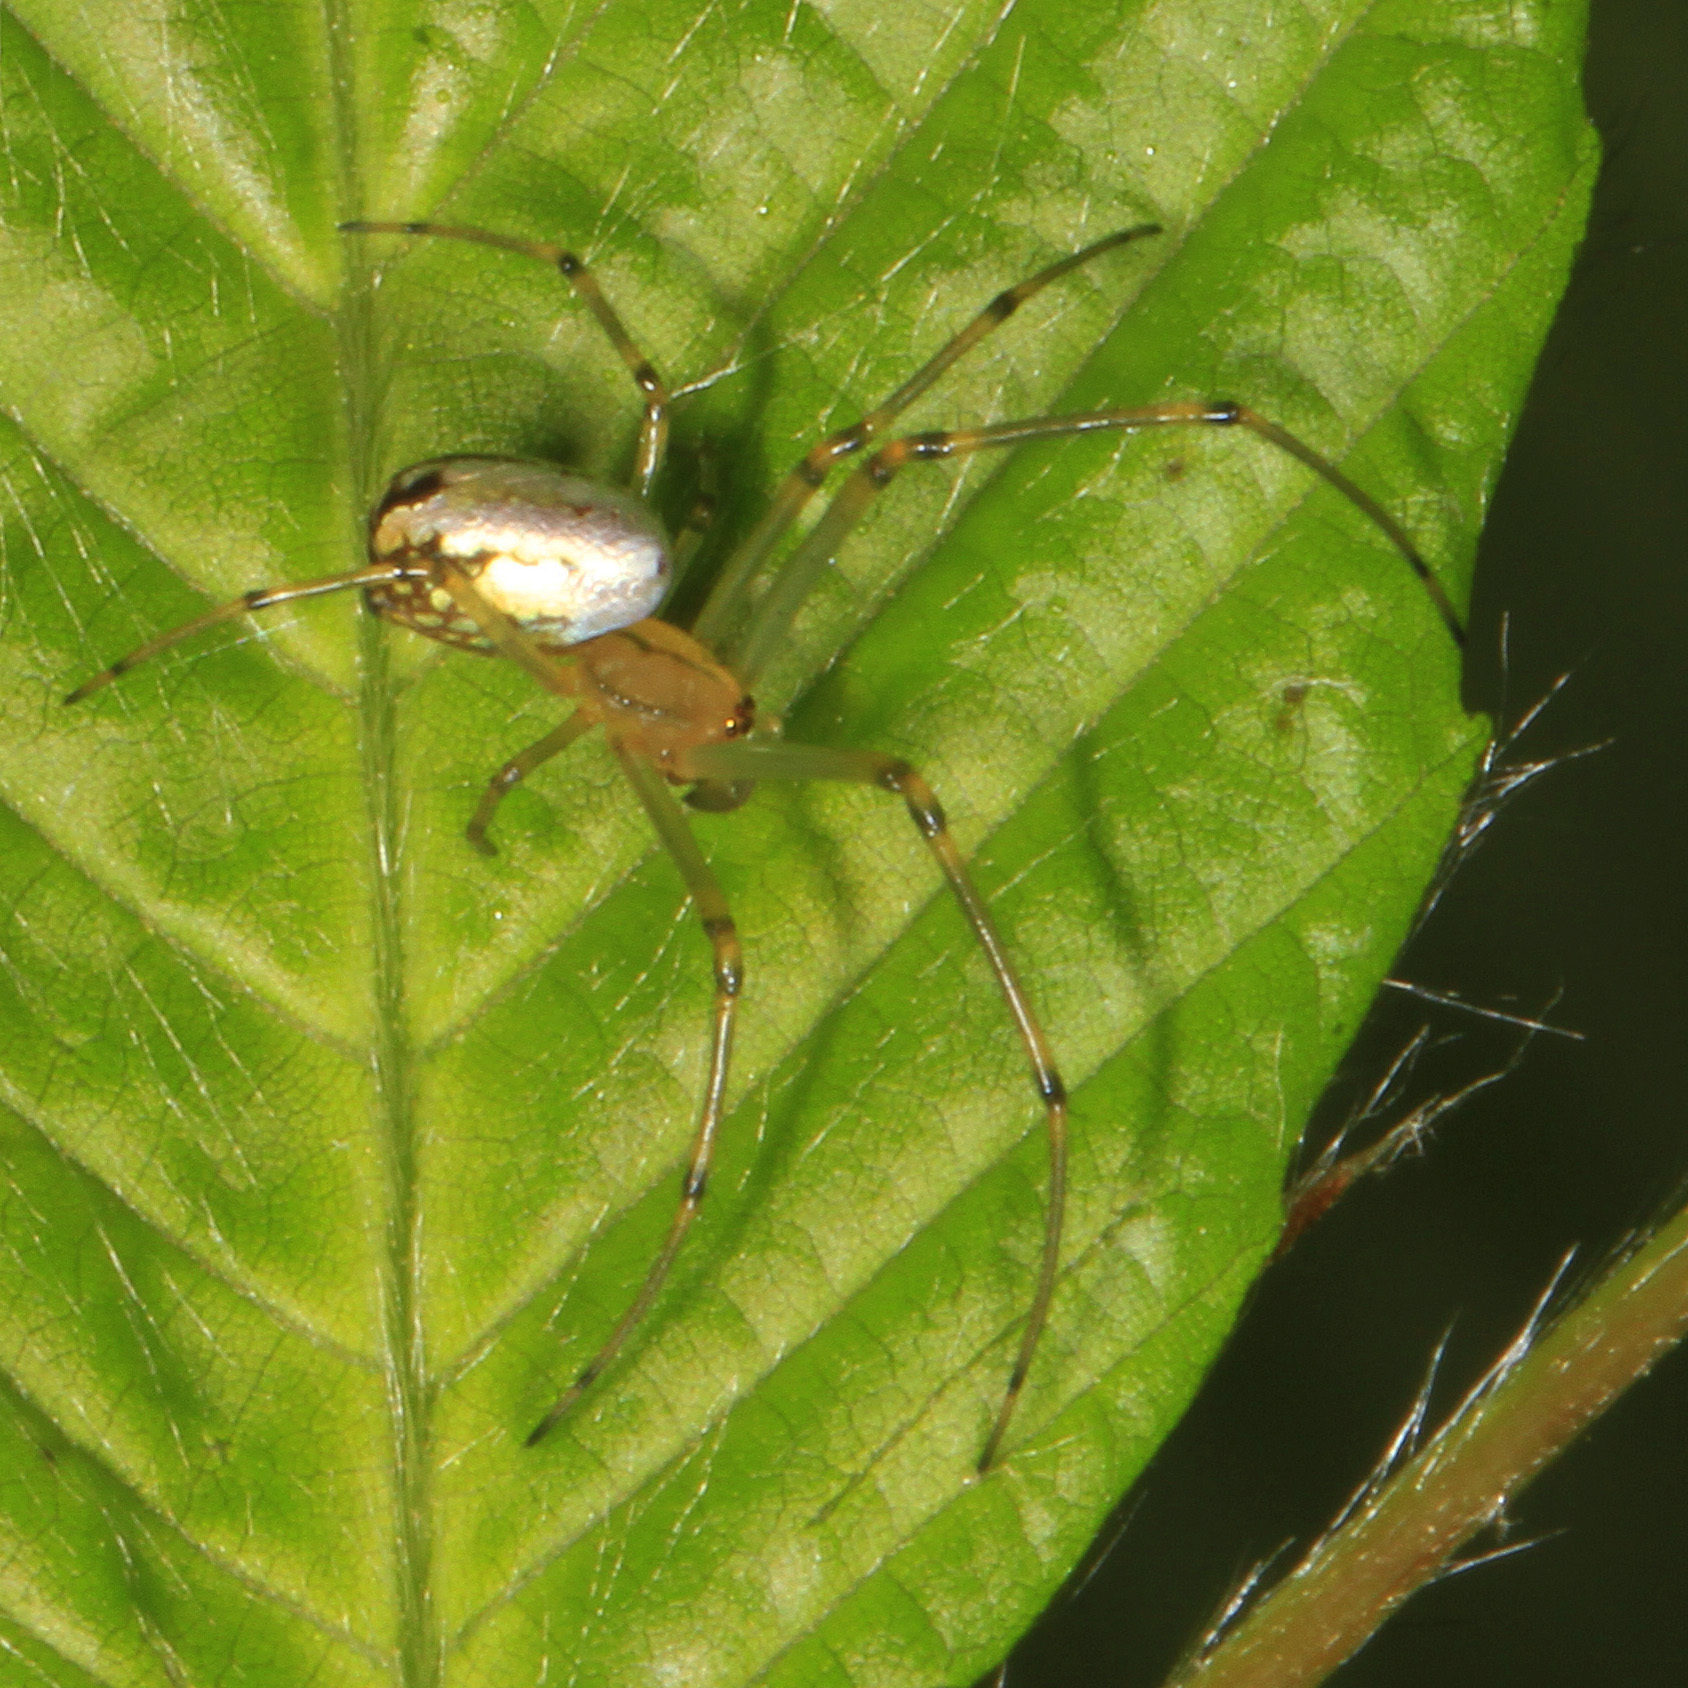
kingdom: Animalia
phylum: Arthropoda
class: Arachnida
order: Araneae
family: Tetragnathidae
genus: Leucauge
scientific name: Leucauge venusta
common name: Longjawed orb weavers
